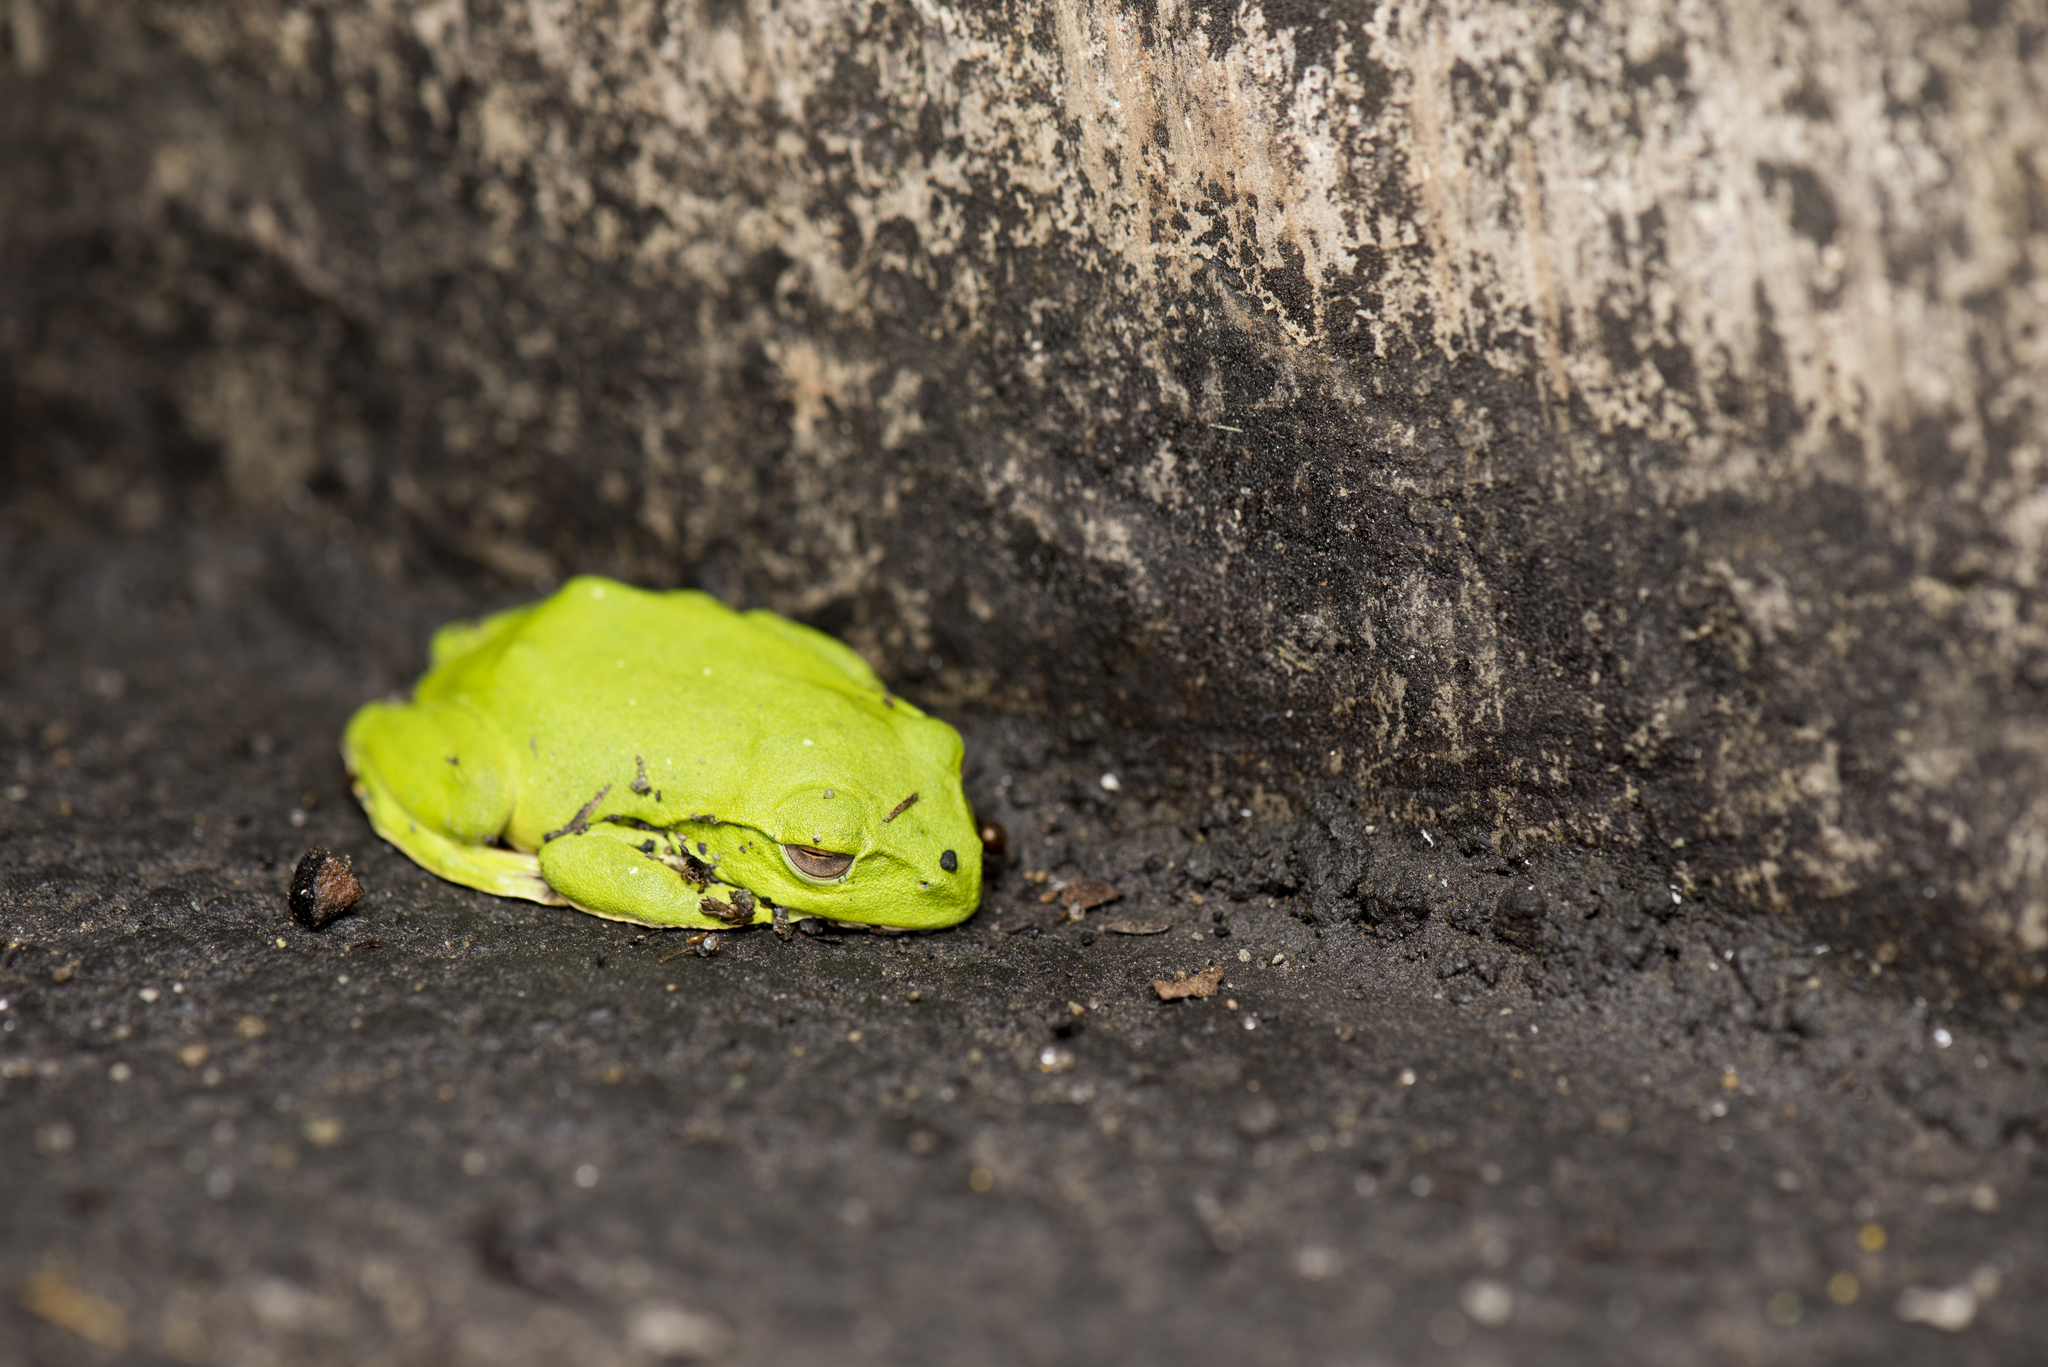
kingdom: Animalia
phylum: Chordata
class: Amphibia
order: Anura
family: Rhacophoridae
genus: Zhangixalus
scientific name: Zhangixalus moltrechti
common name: Moltrecht's treefrog
